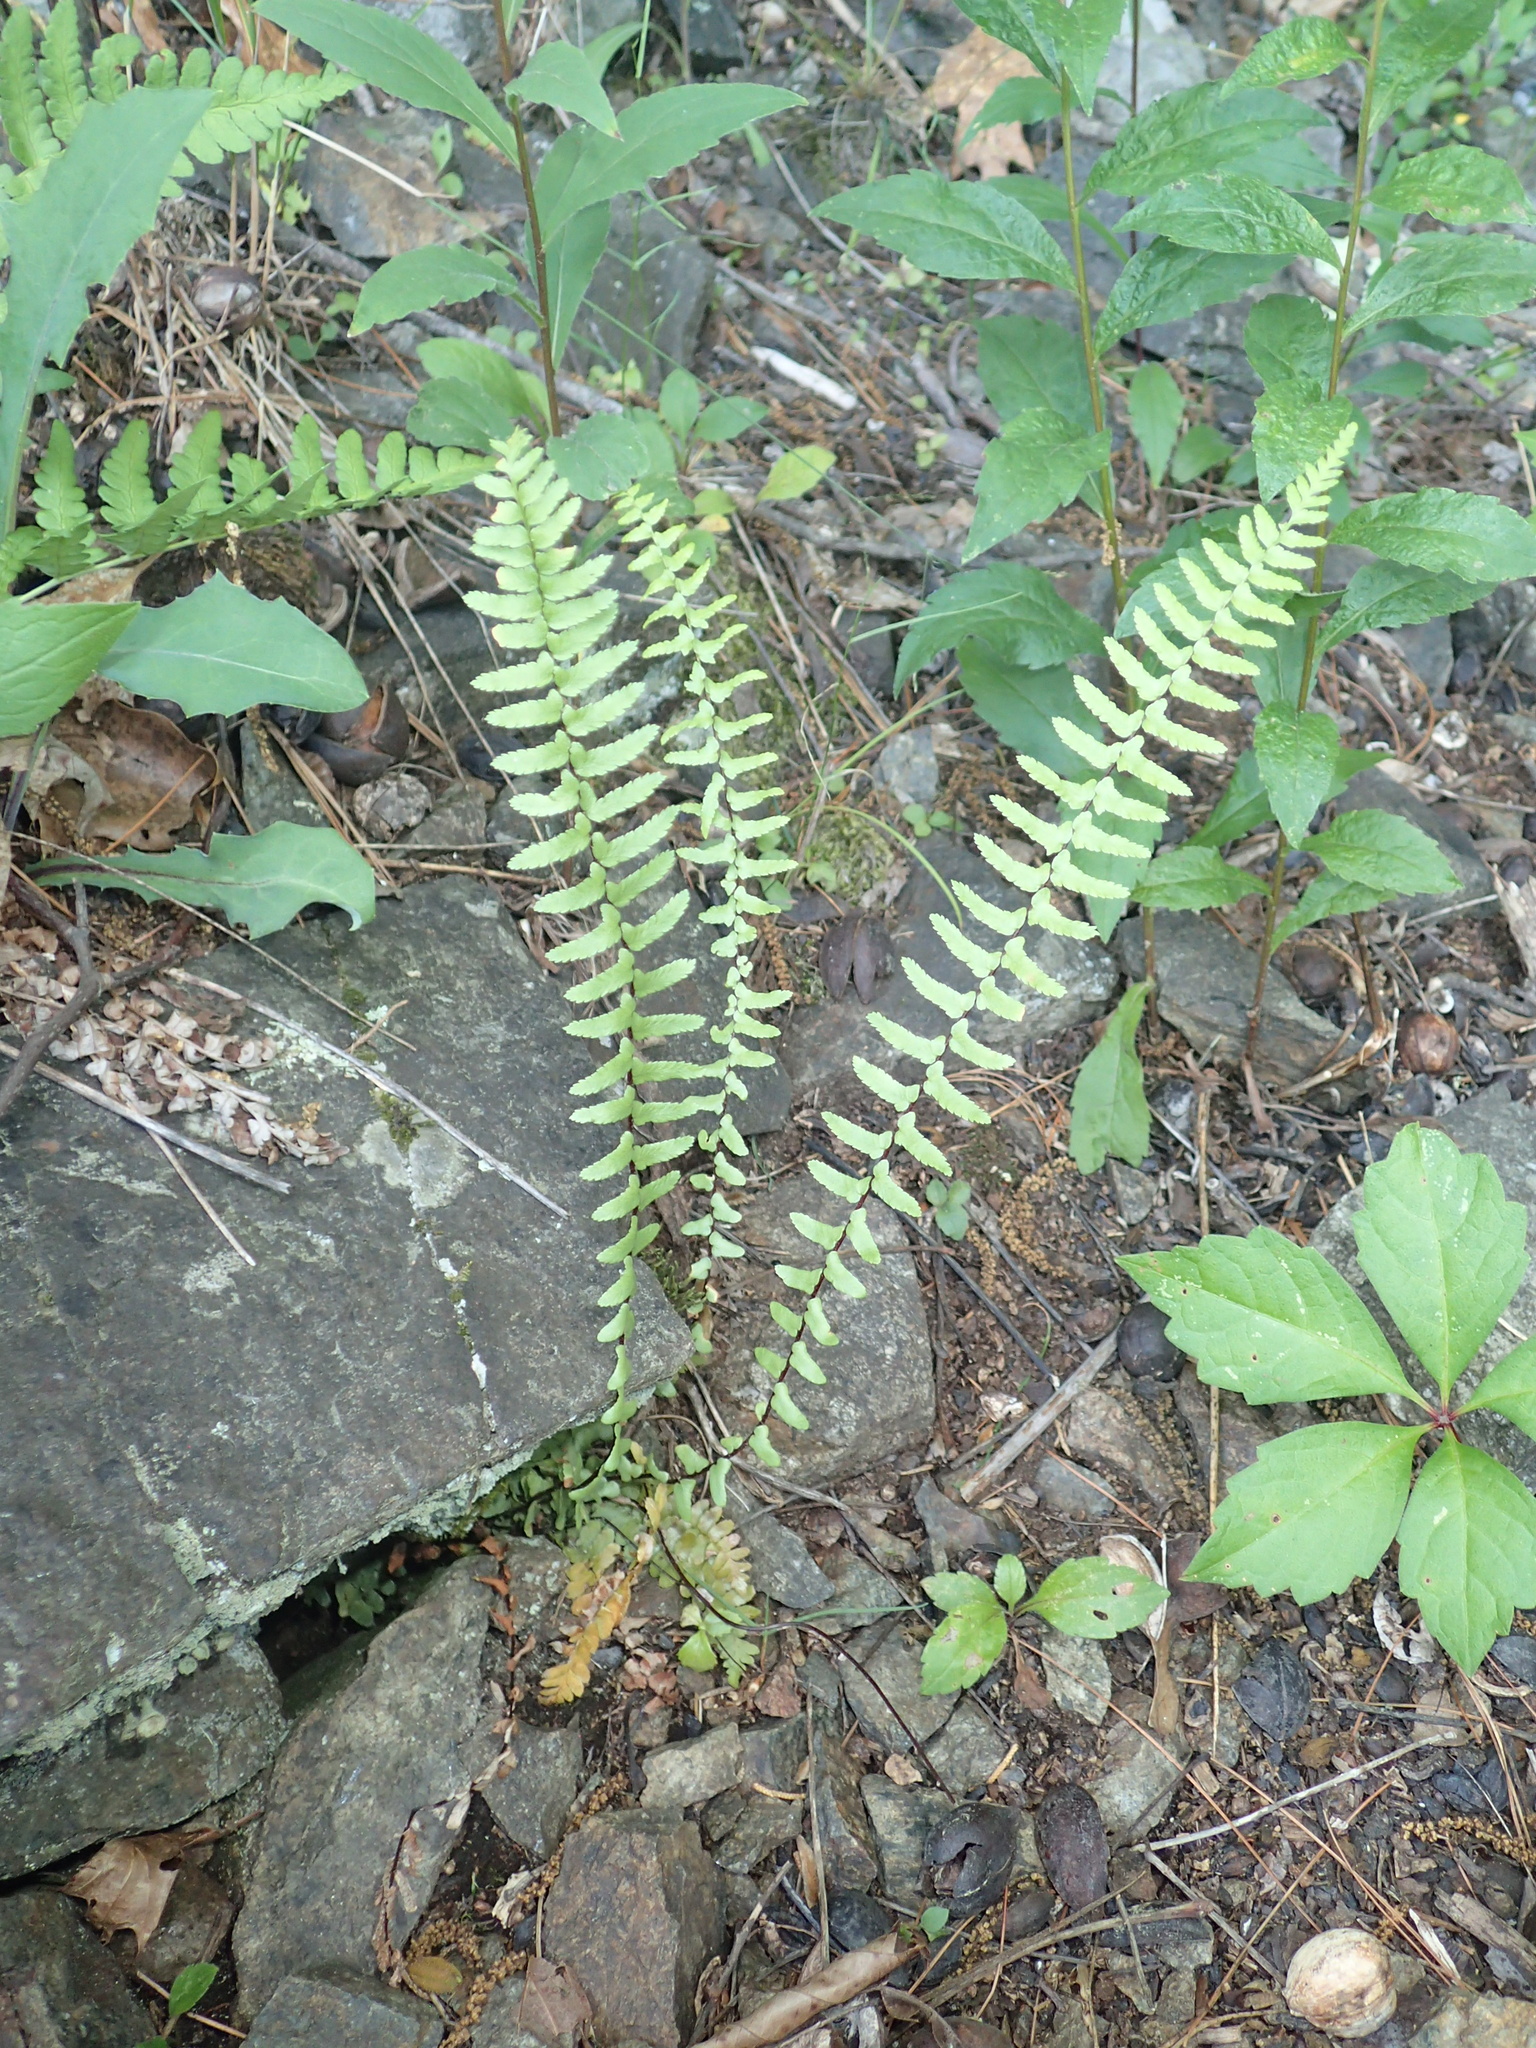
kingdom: Plantae
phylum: Tracheophyta
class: Polypodiopsida
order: Polypodiales
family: Aspleniaceae
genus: Asplenium
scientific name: Asplenium platyneuron
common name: Ebony spleenwort
